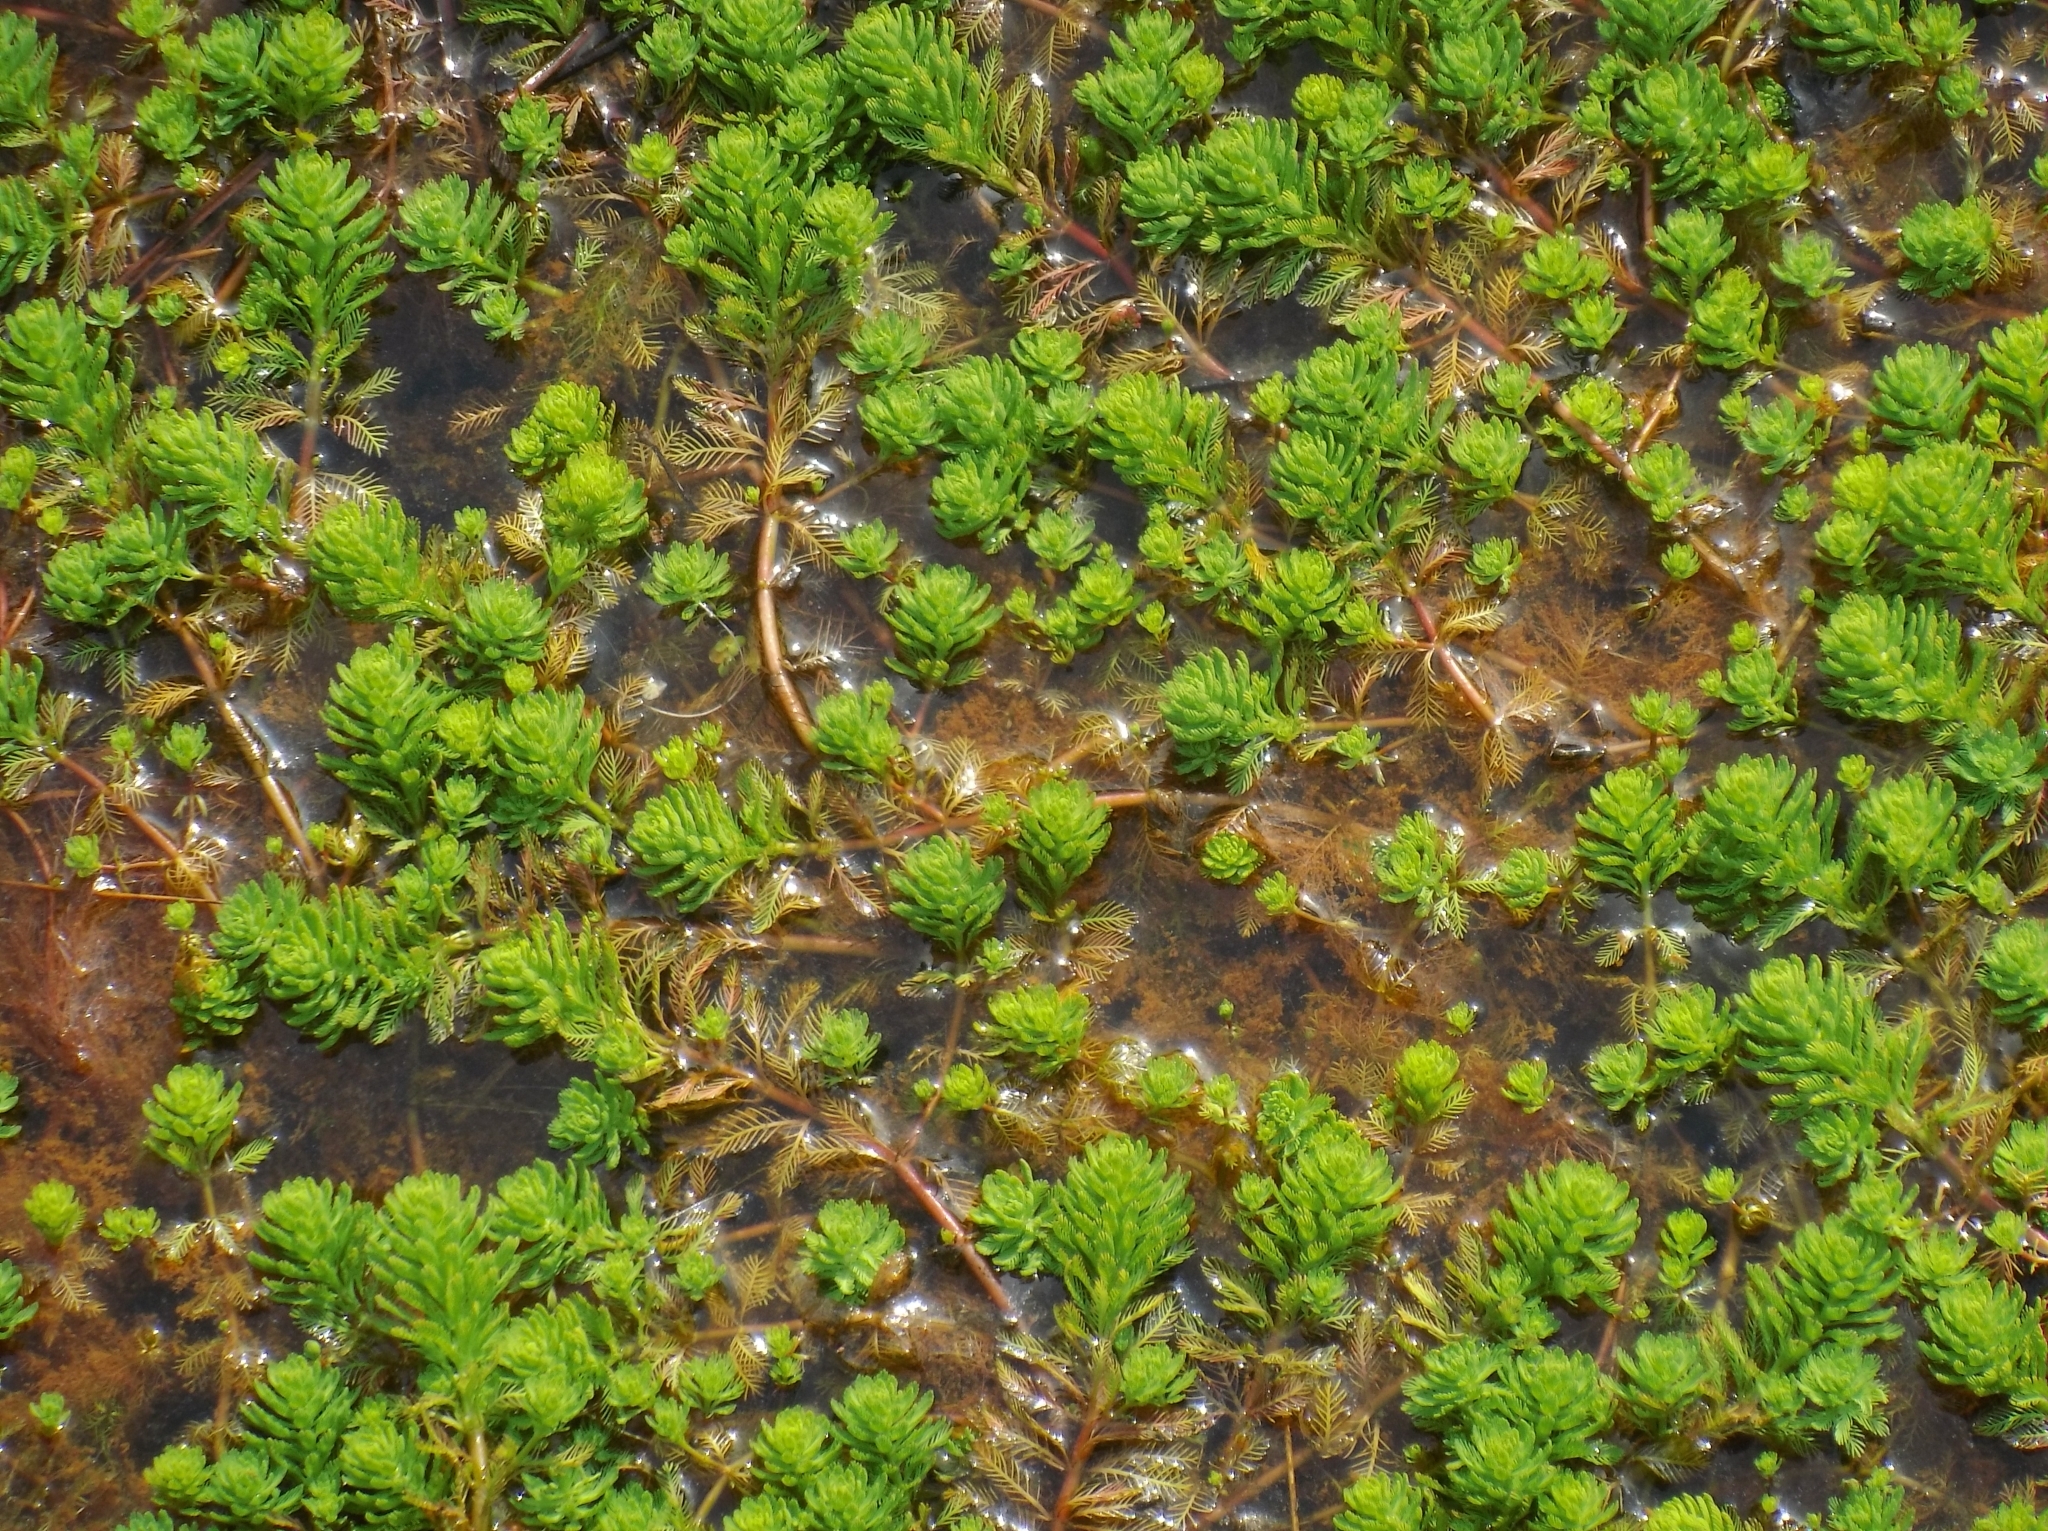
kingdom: Plantae
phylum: Tracheophyta
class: Magnoliopsida
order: Saxifragales
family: Haloragaceae
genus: Myriophyllum
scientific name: Myriophyllum aquaticum
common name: Parrot's feather
